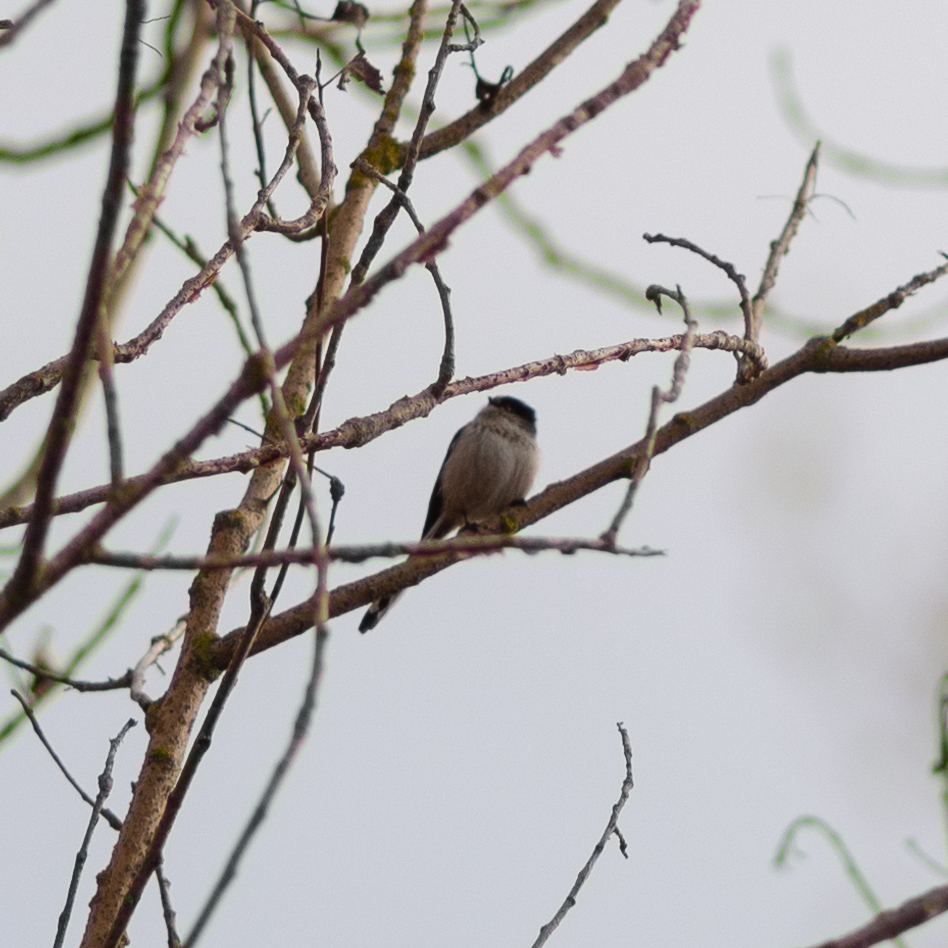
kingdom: Animalia
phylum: Chordata
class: Aves
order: Passeriformes
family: Aegithalidae
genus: Aegithalos
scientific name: Aegithalos caudatus
